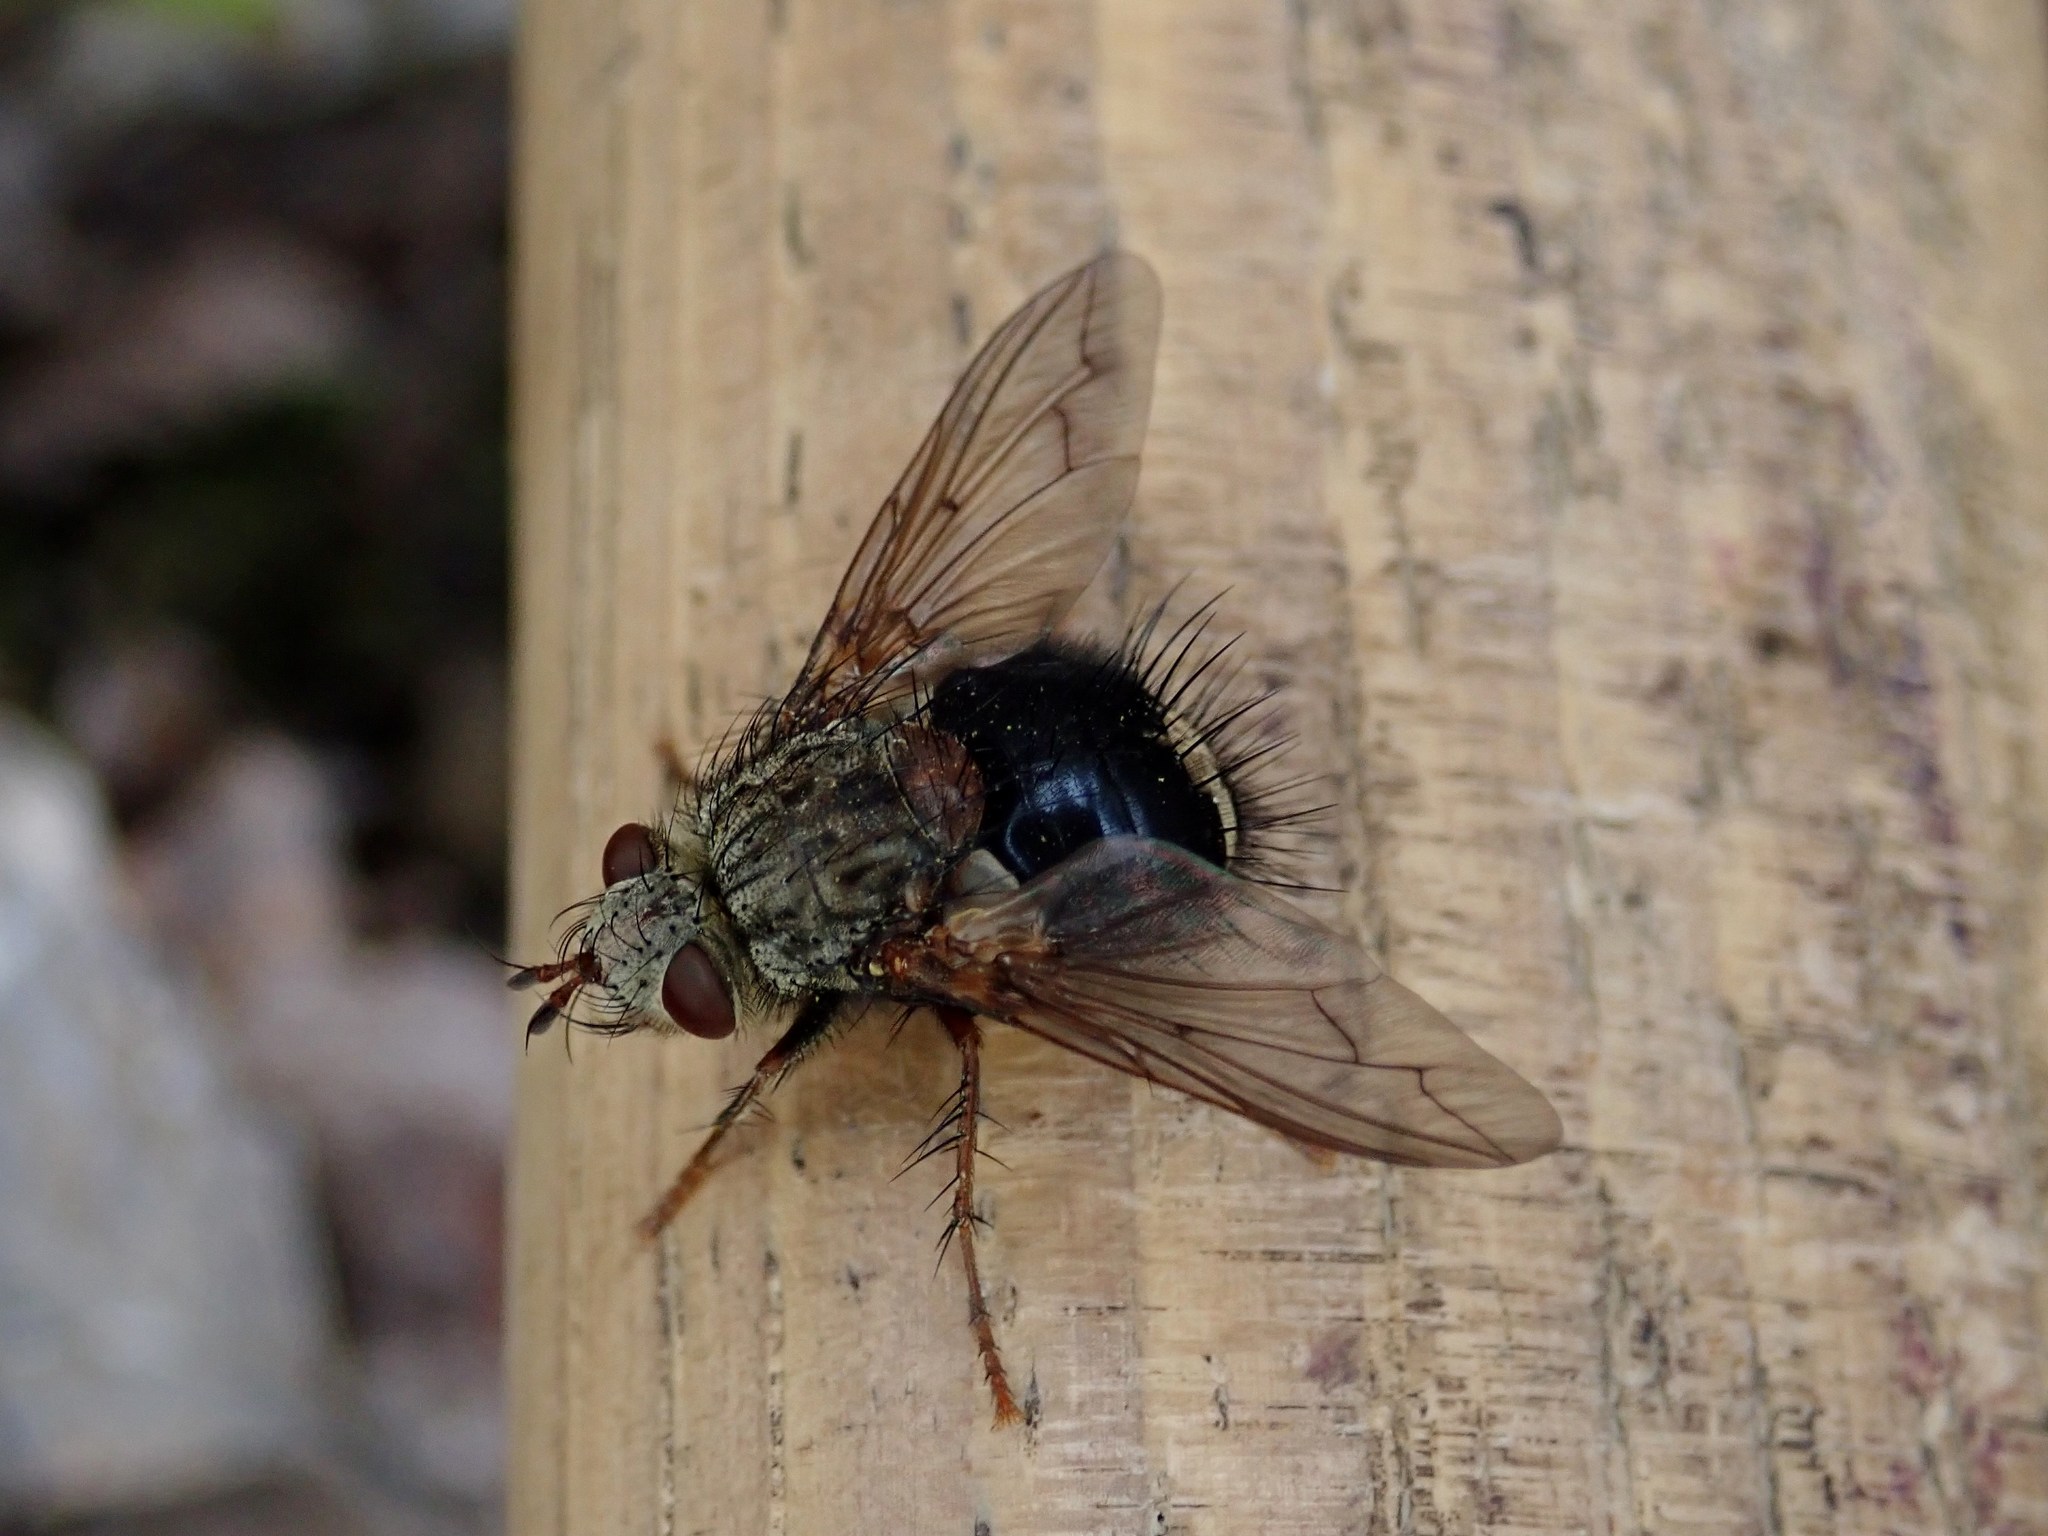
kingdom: Animalia
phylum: Arthropoda
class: Insecta
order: Diptera
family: Tachinidae
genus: Epalpus
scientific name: Epalpus signifer
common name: Early tachinid fly
